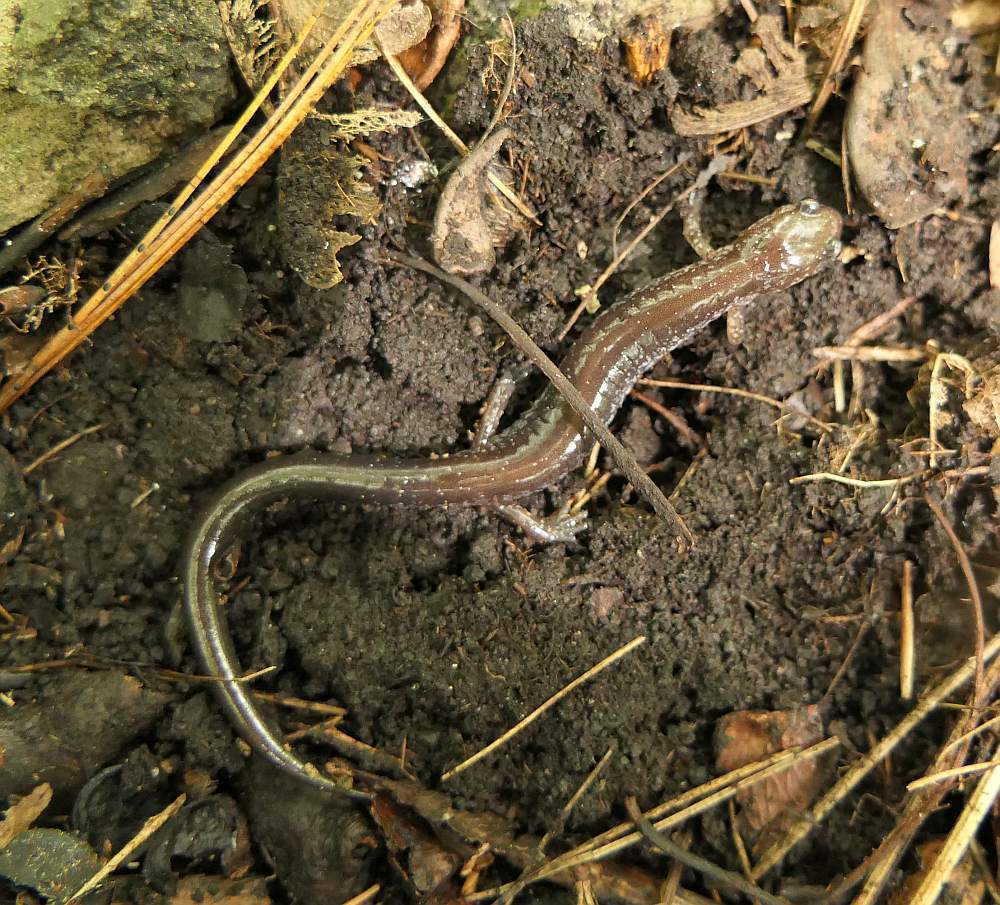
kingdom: Animalia
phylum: Chordata
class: Amphibia
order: Caudata
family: Plethodontidae
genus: Plethodon
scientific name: Plethodon cinereus
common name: Redback salamander
